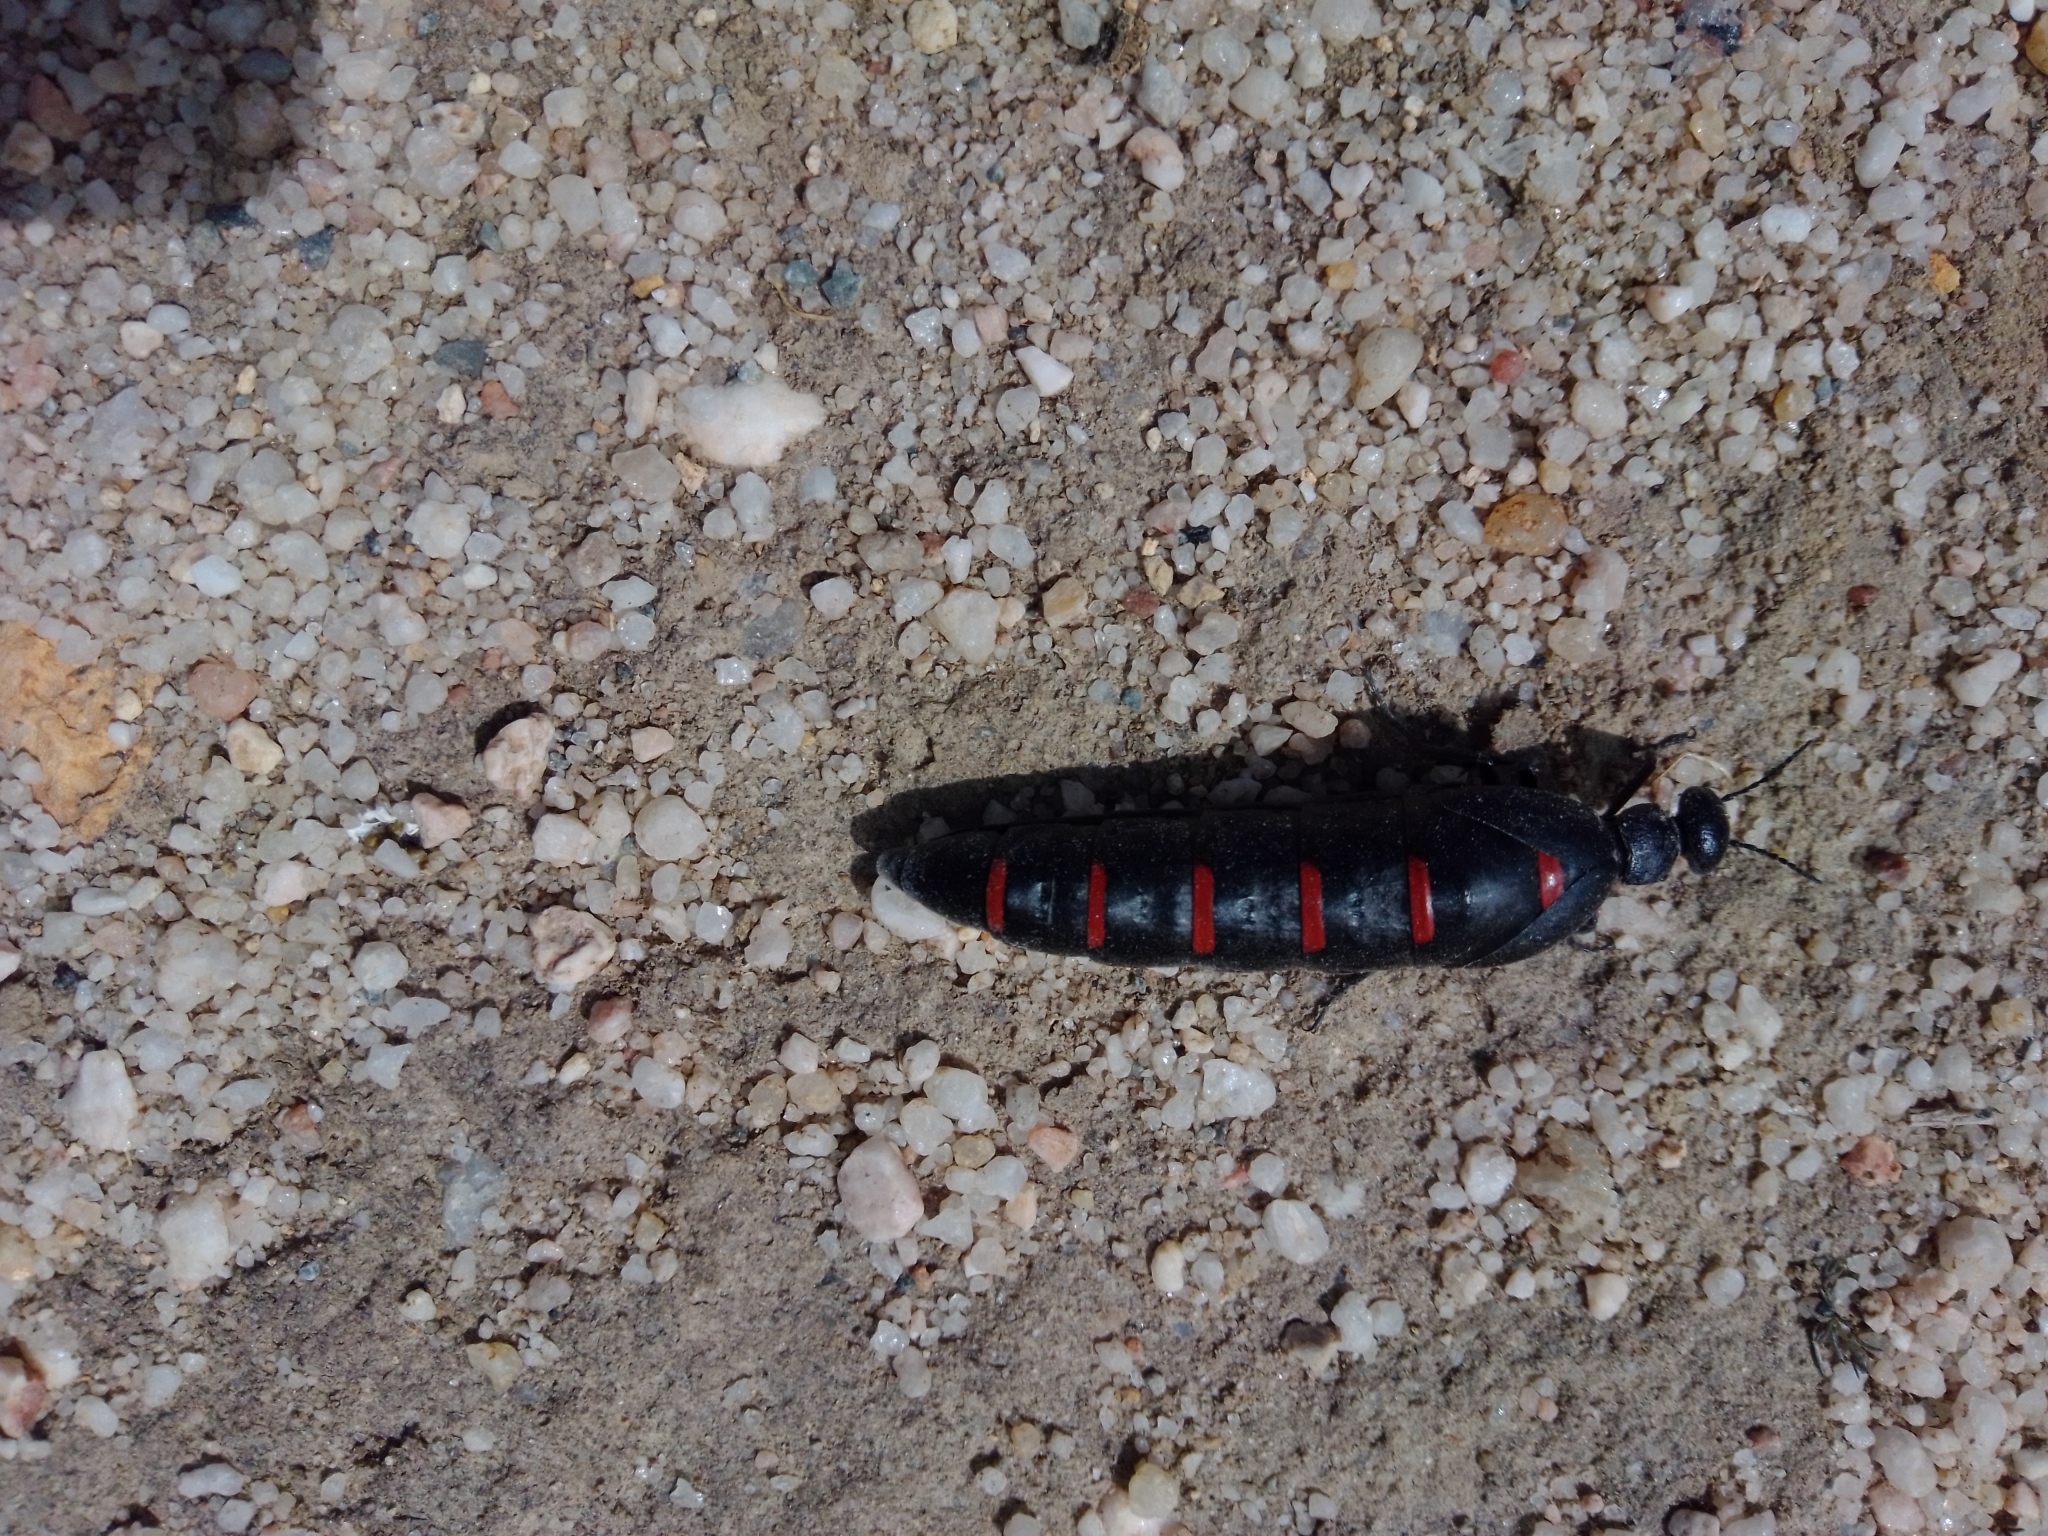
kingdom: Animalia
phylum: Arthropoda
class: Insecta
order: Coleoptera
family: Meloidae
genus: Berberomeloe
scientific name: Berberomeloe castuo
